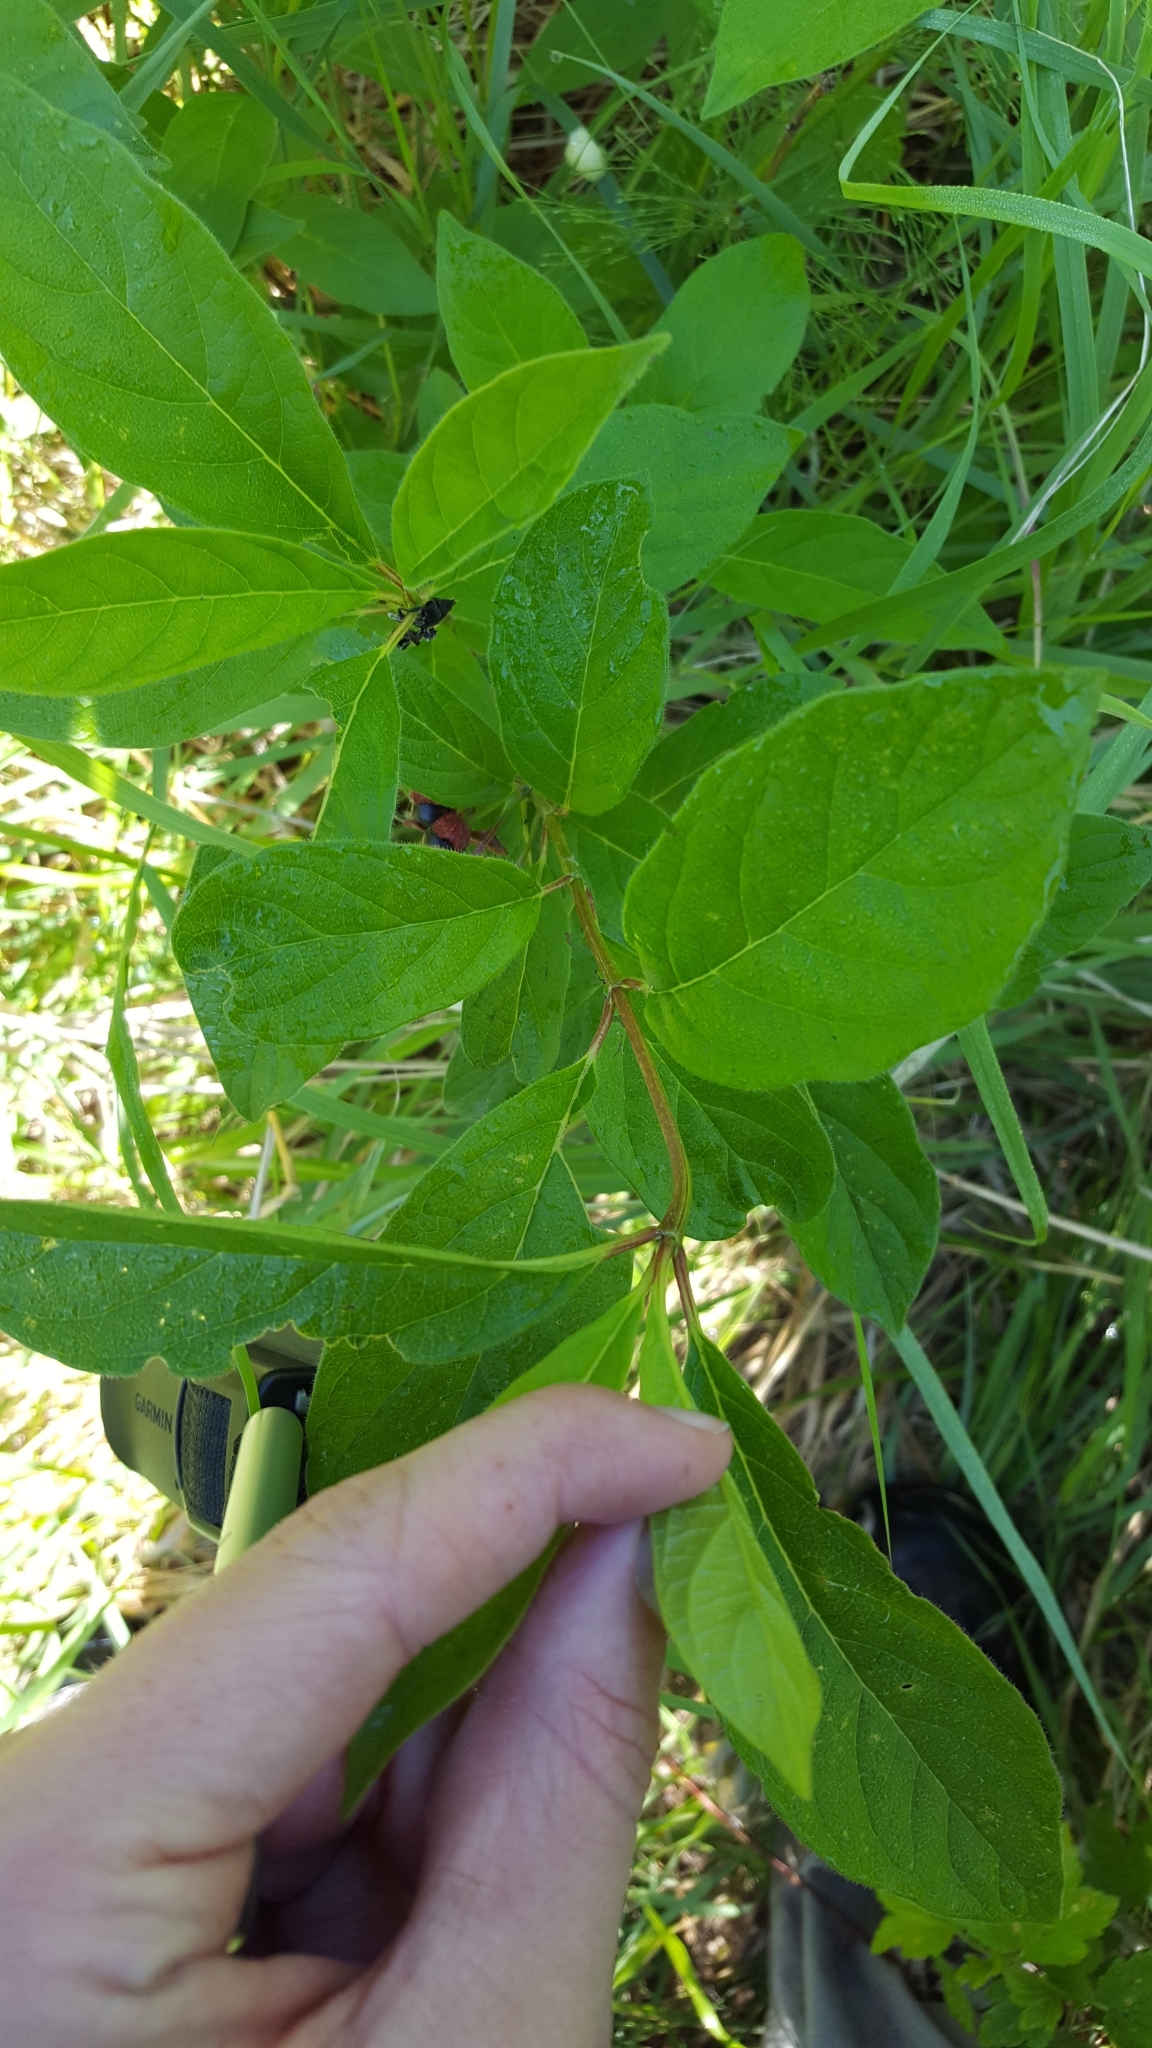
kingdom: Plantae
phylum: Tracheophyta
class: Magnoliopsida
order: Dipsacales
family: Caprifoliaceae
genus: Lonicera
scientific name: Lonicera involucrata
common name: Californian honeysuckle
